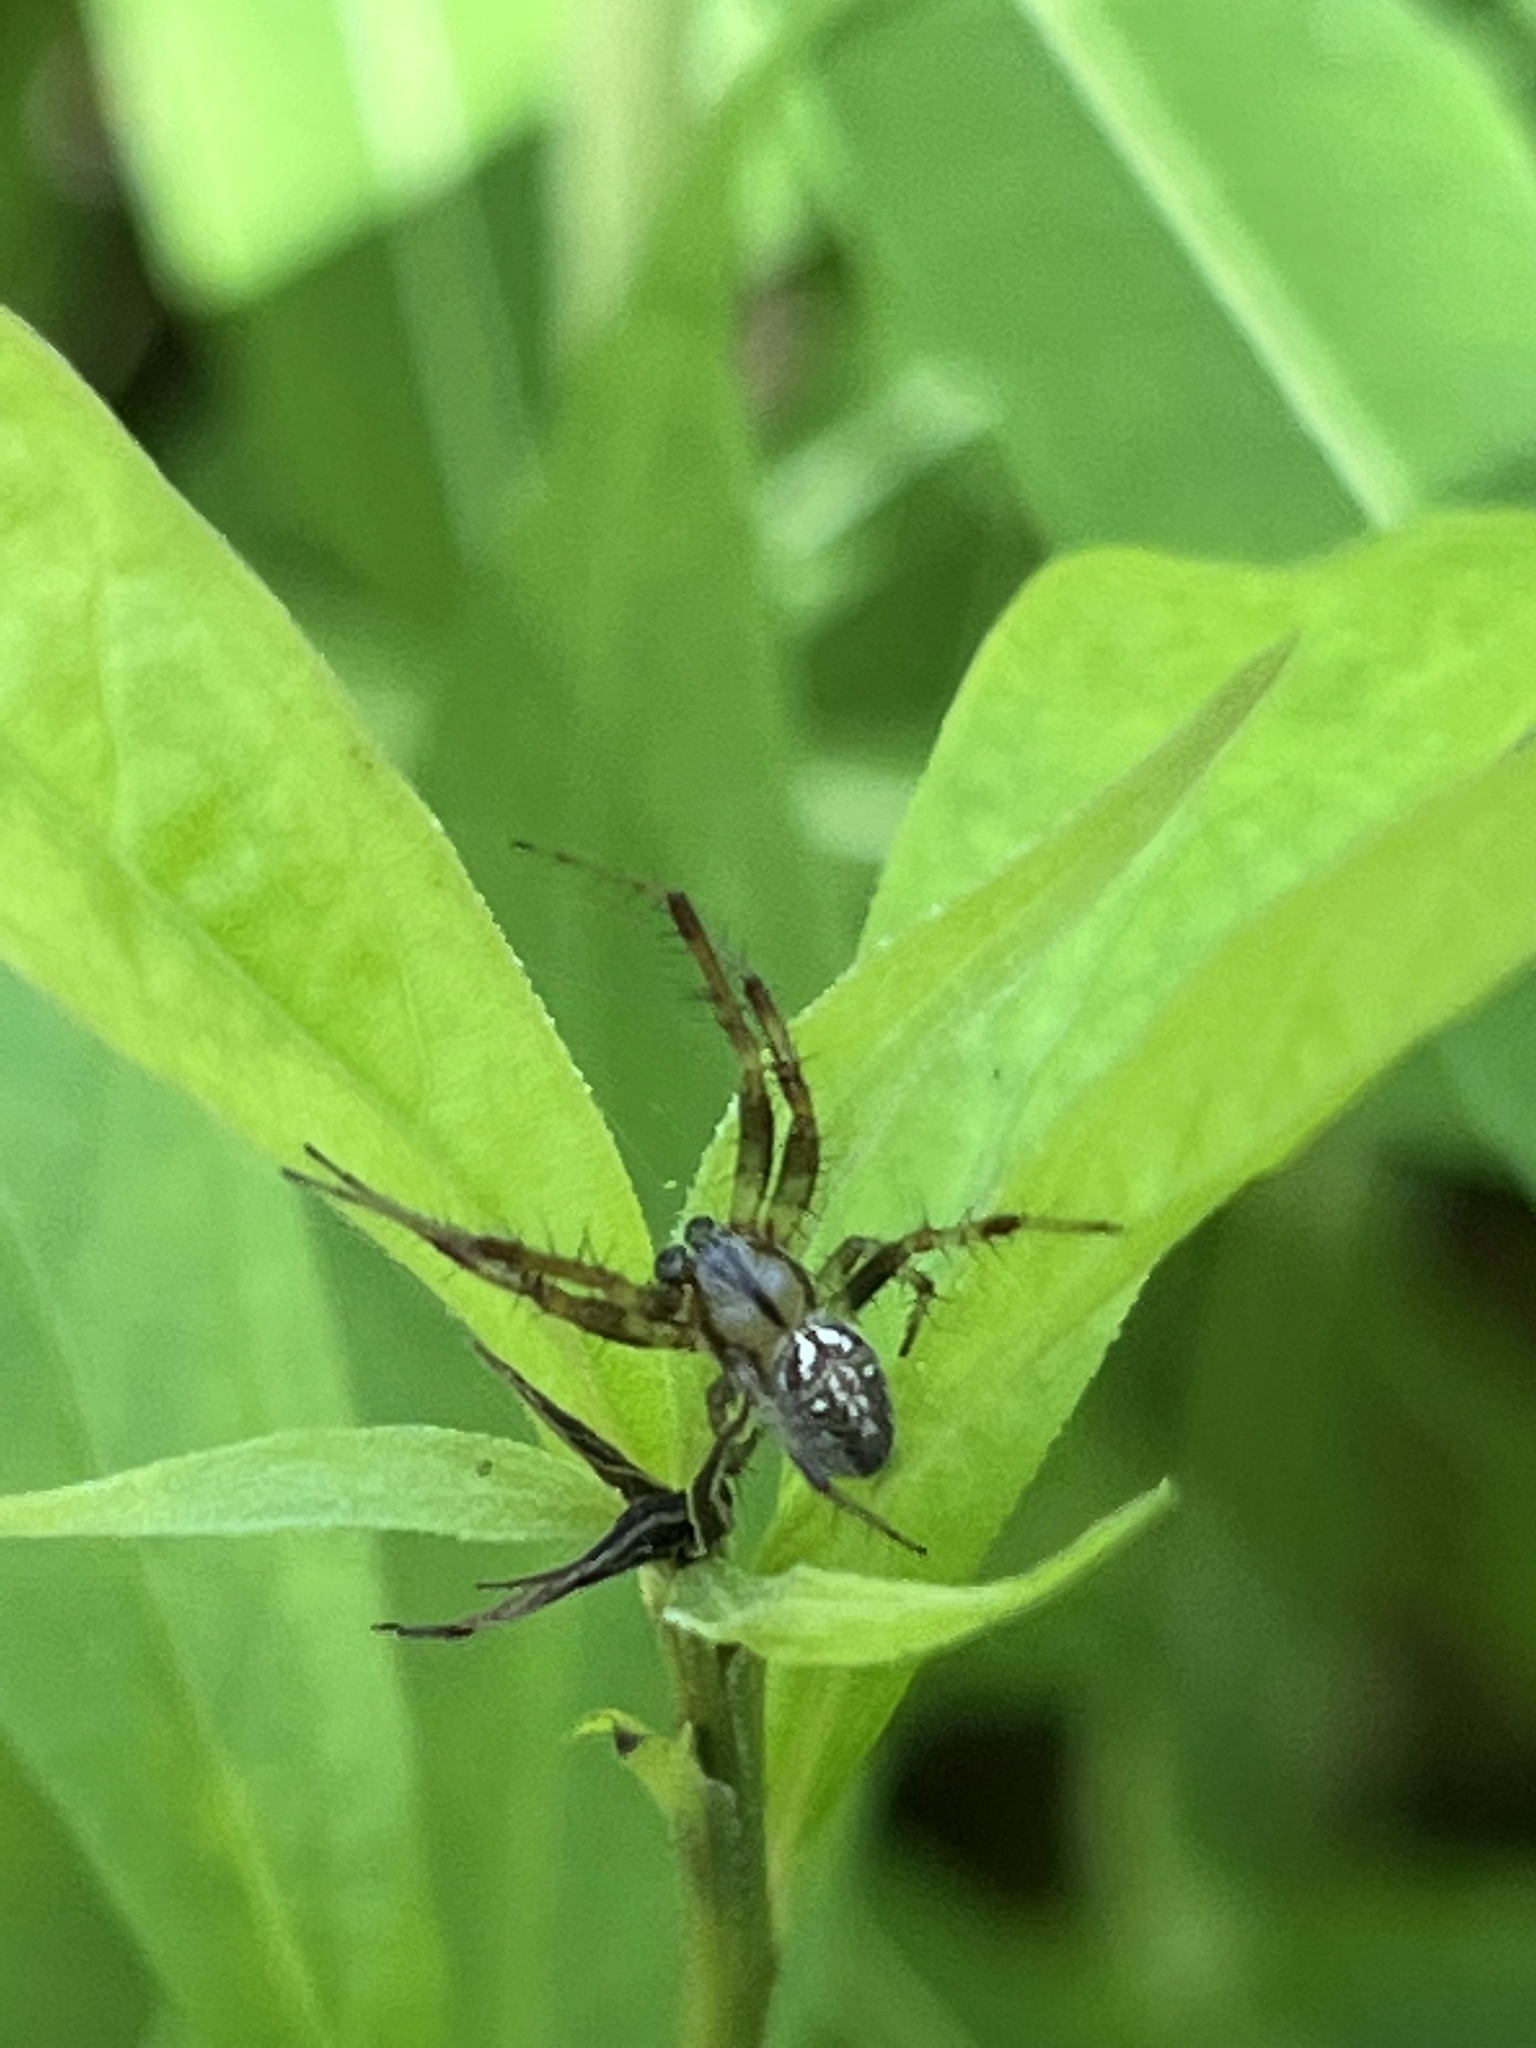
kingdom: Animalia
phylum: Arthropoda
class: Arachnida
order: Araneae
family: Araneidae
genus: Neoscona
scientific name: Neoscona arabesca
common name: Orb weavers
